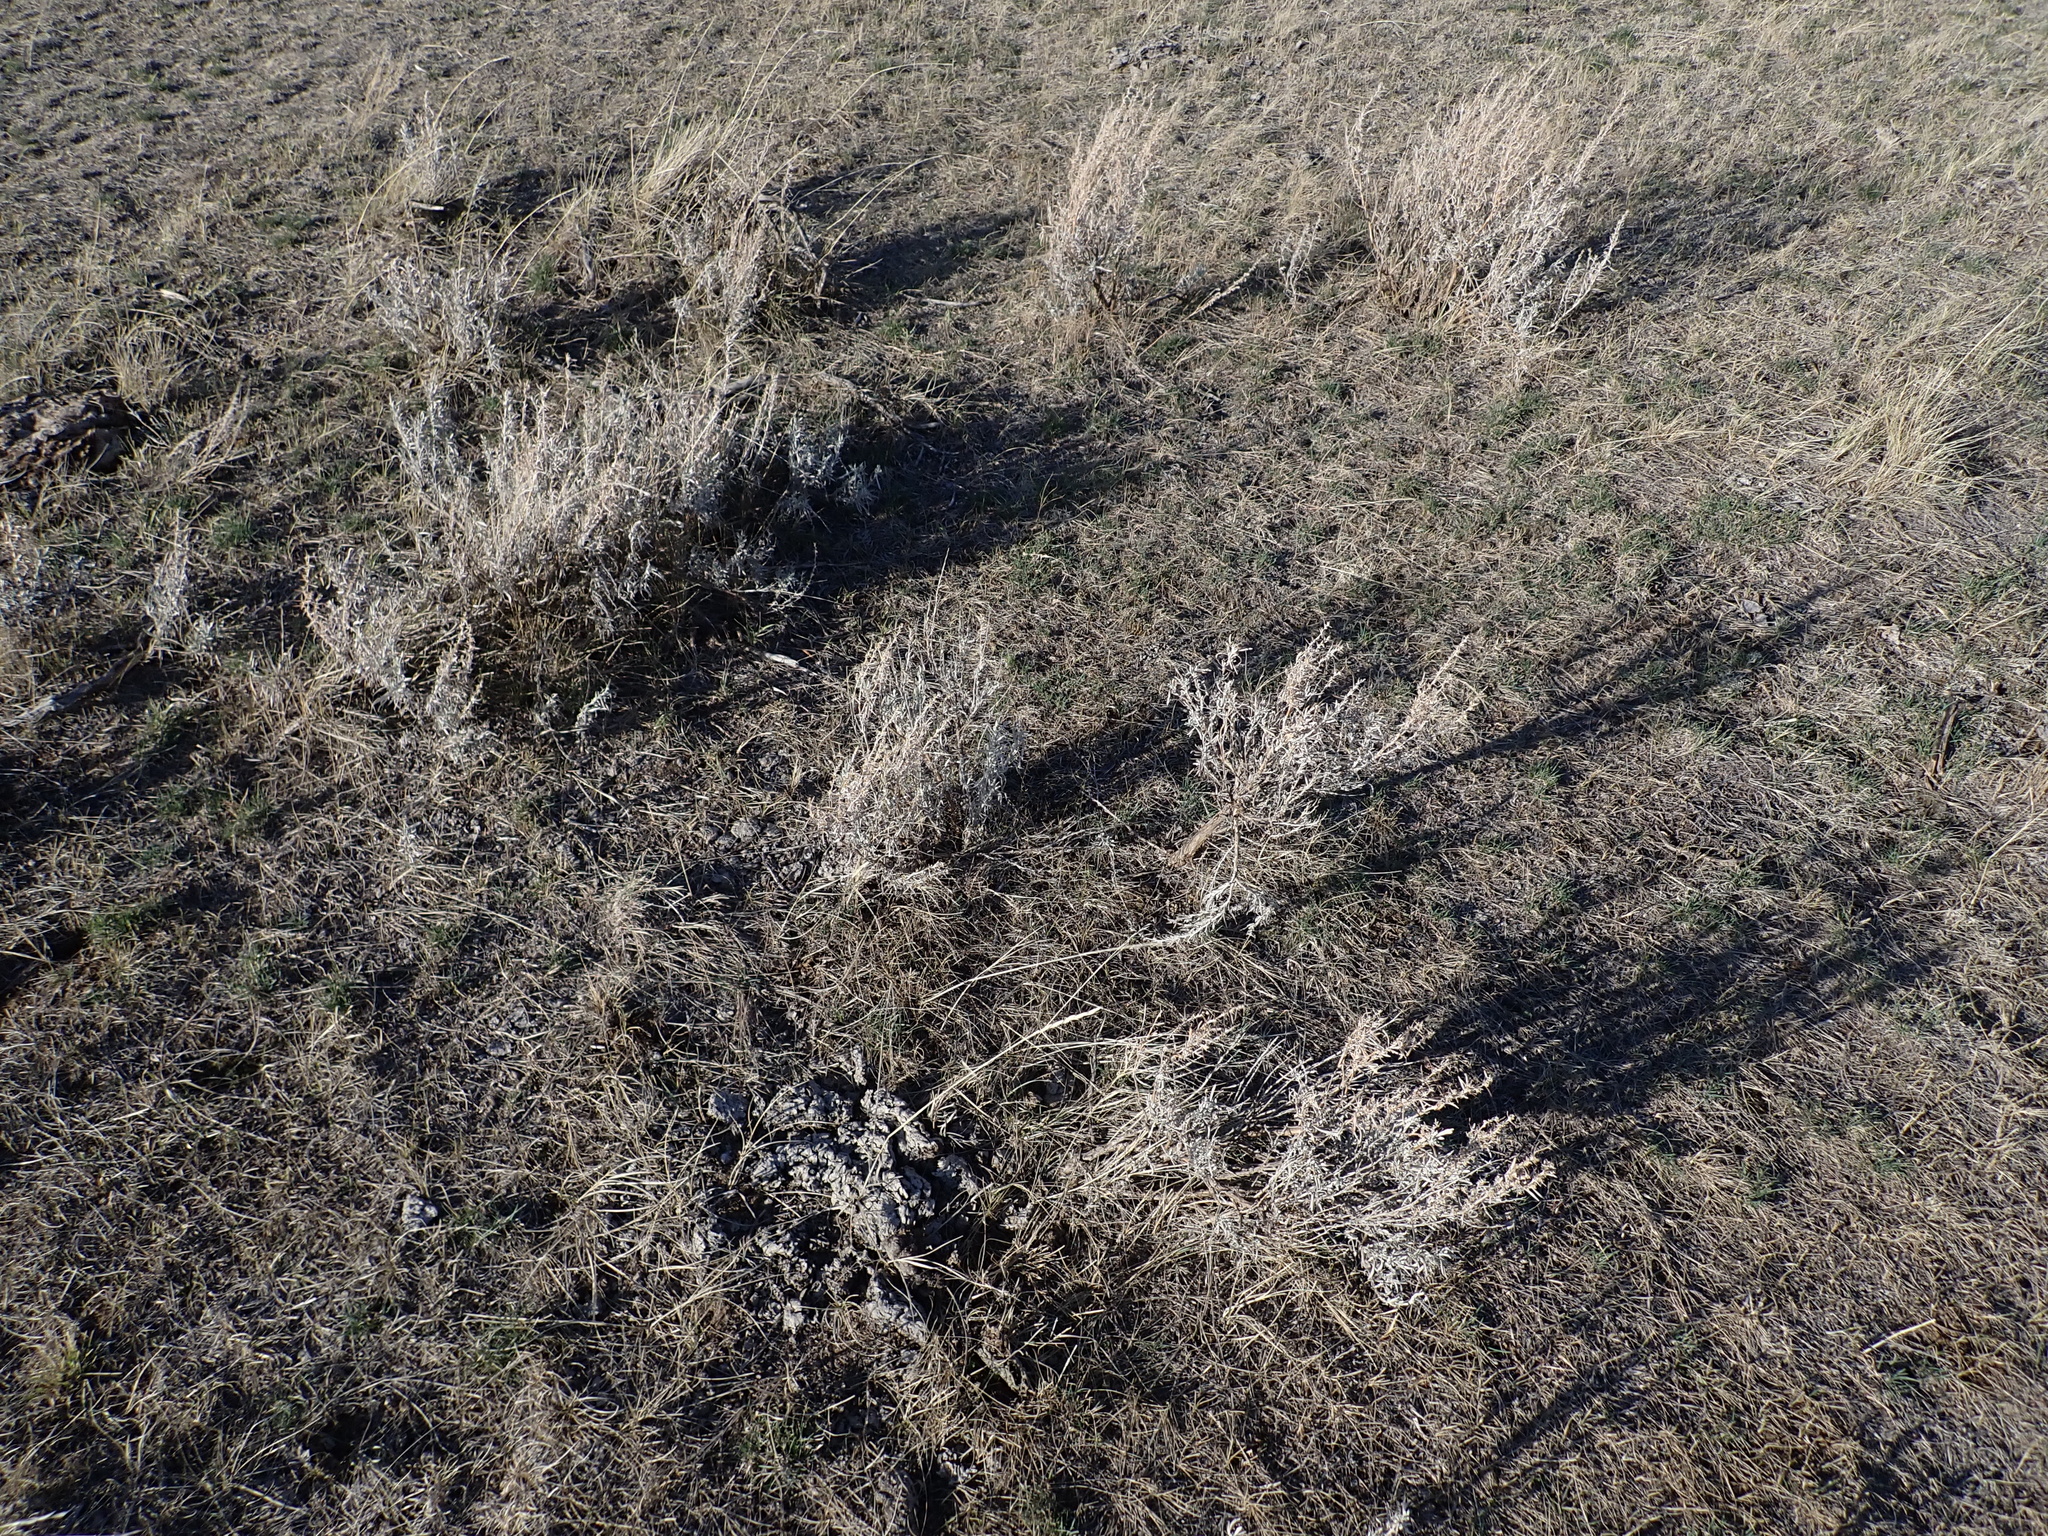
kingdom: Plantae
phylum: Tracheophyta
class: Magnoliopsida
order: Asterales
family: Asteraceae
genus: Artemisia
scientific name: Artemisia cana
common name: Silver sagebrush
